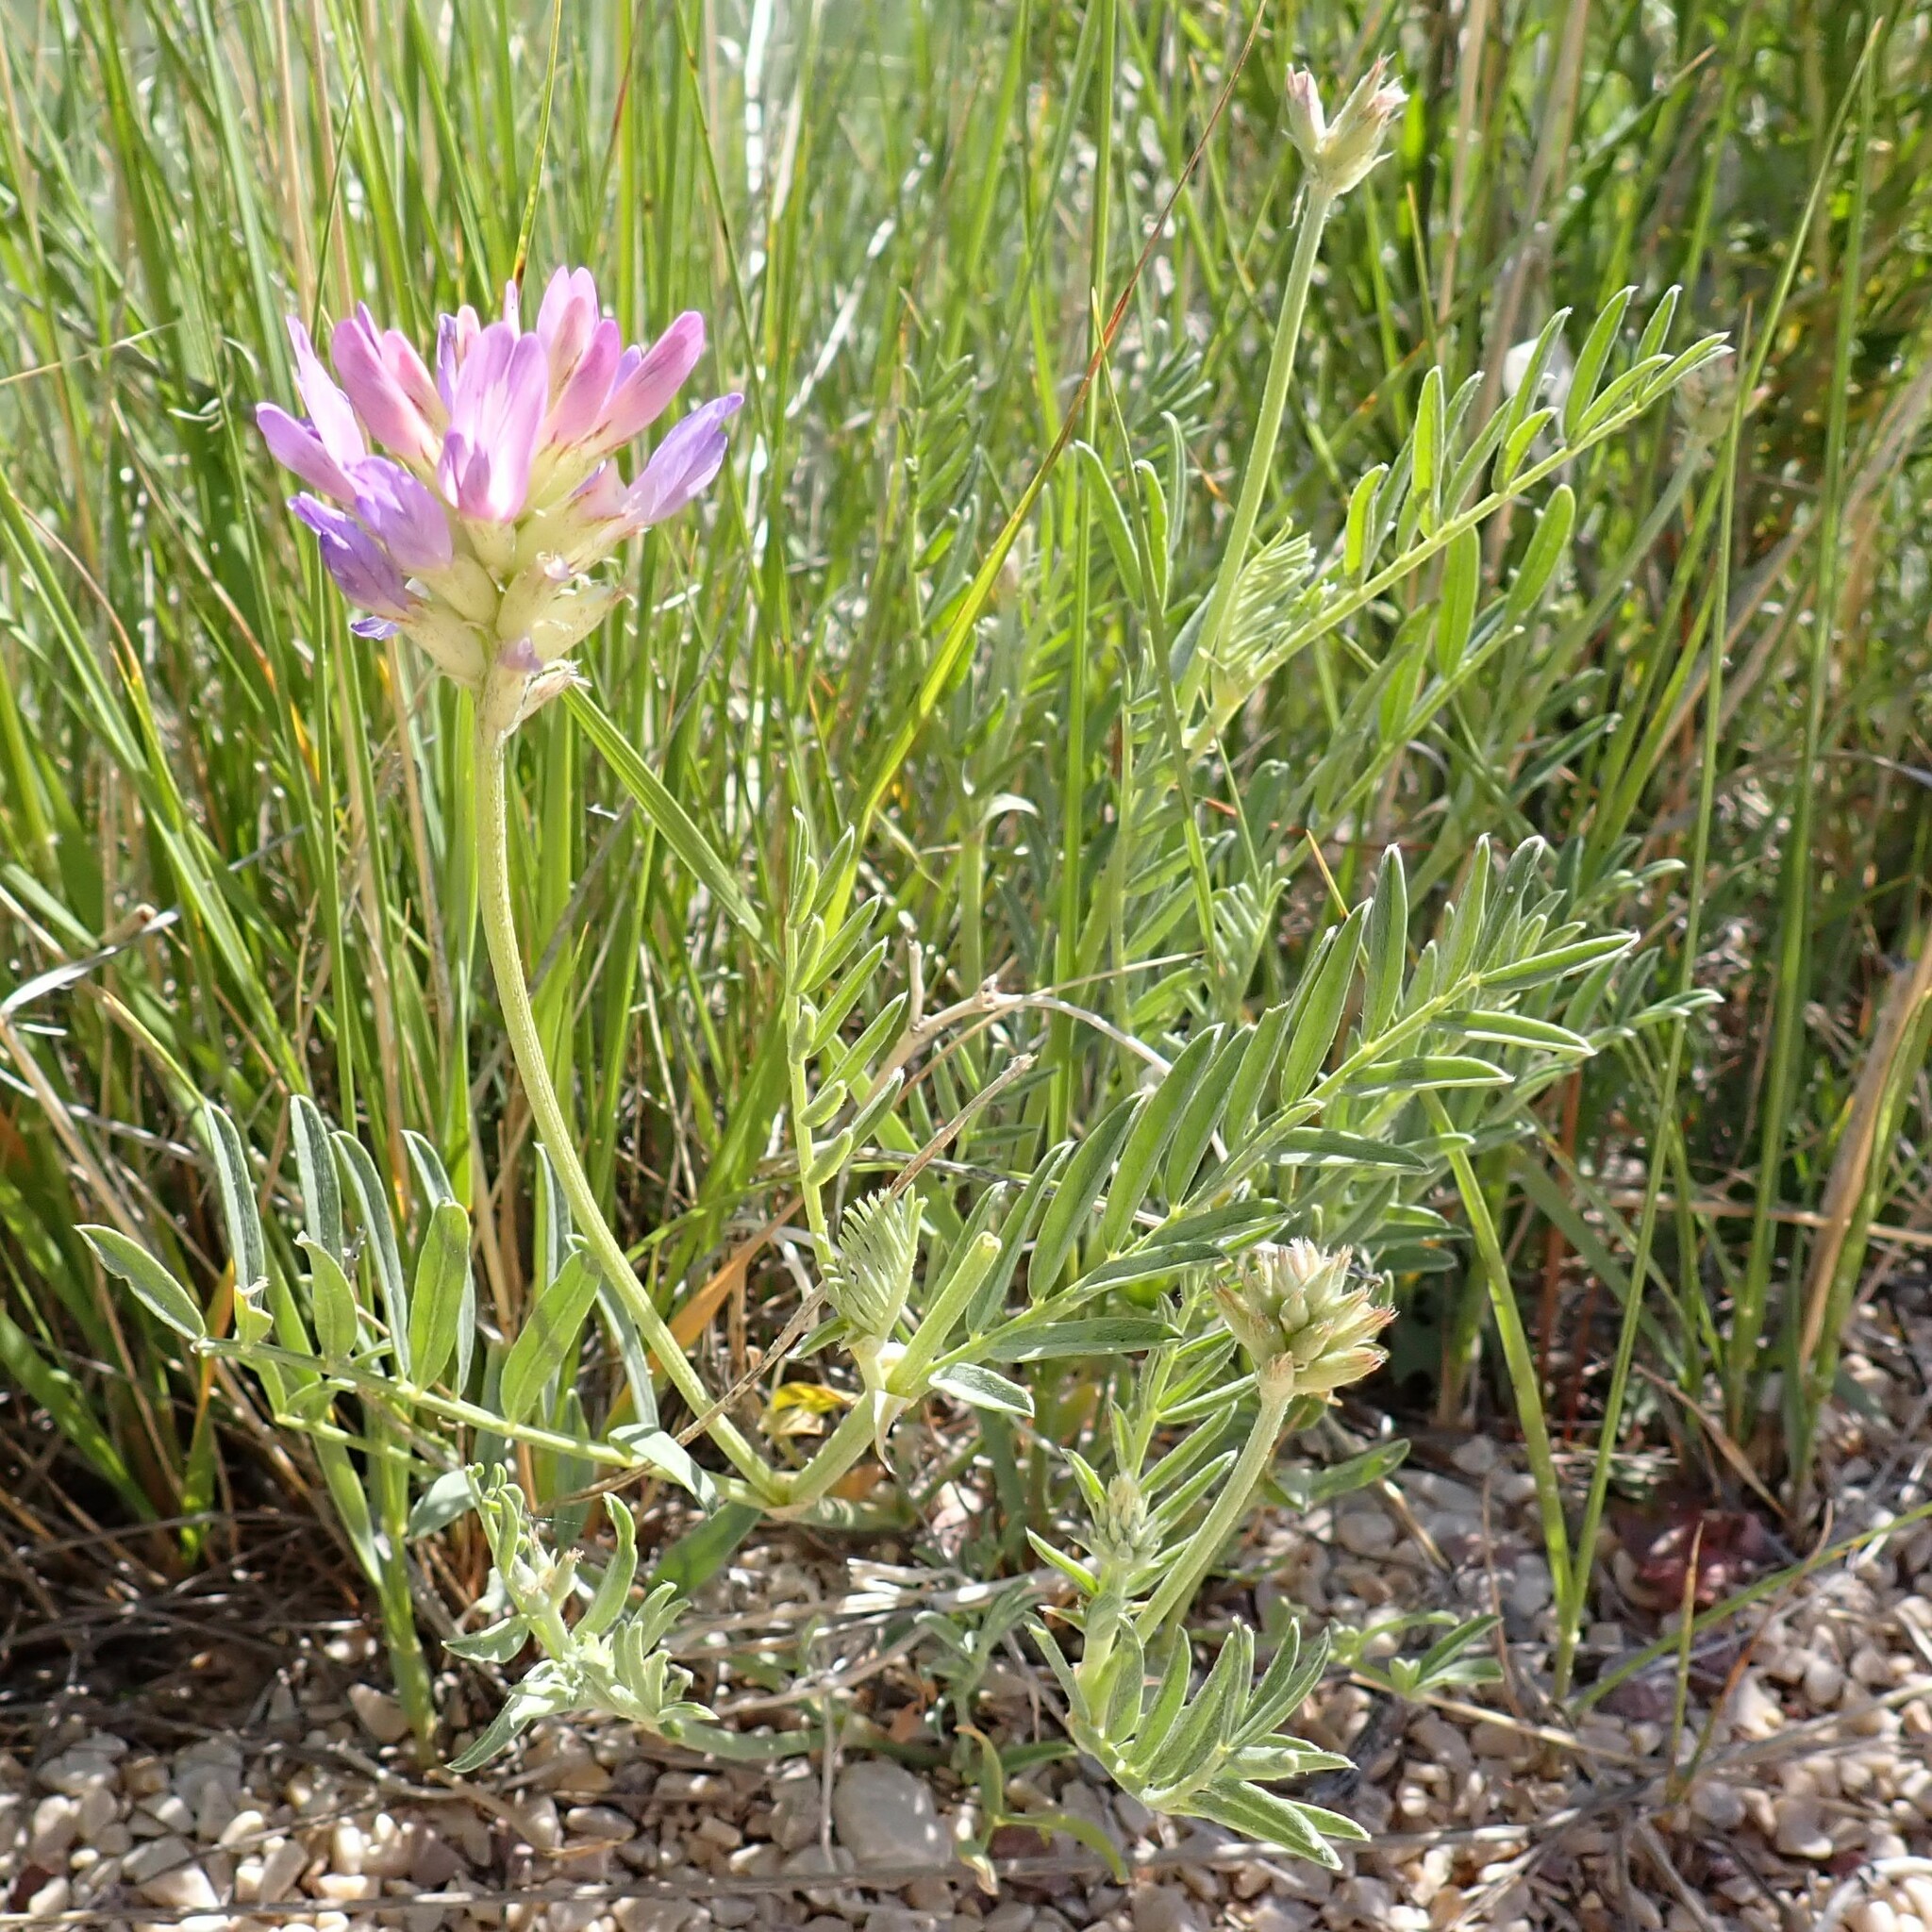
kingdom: Plantae
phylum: Tracheophyta
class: Magnoliopsida
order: Fabales
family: Fabaceae
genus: Astragalus
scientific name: Astragalus laxmannii
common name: Laxmann's milk-vetch
